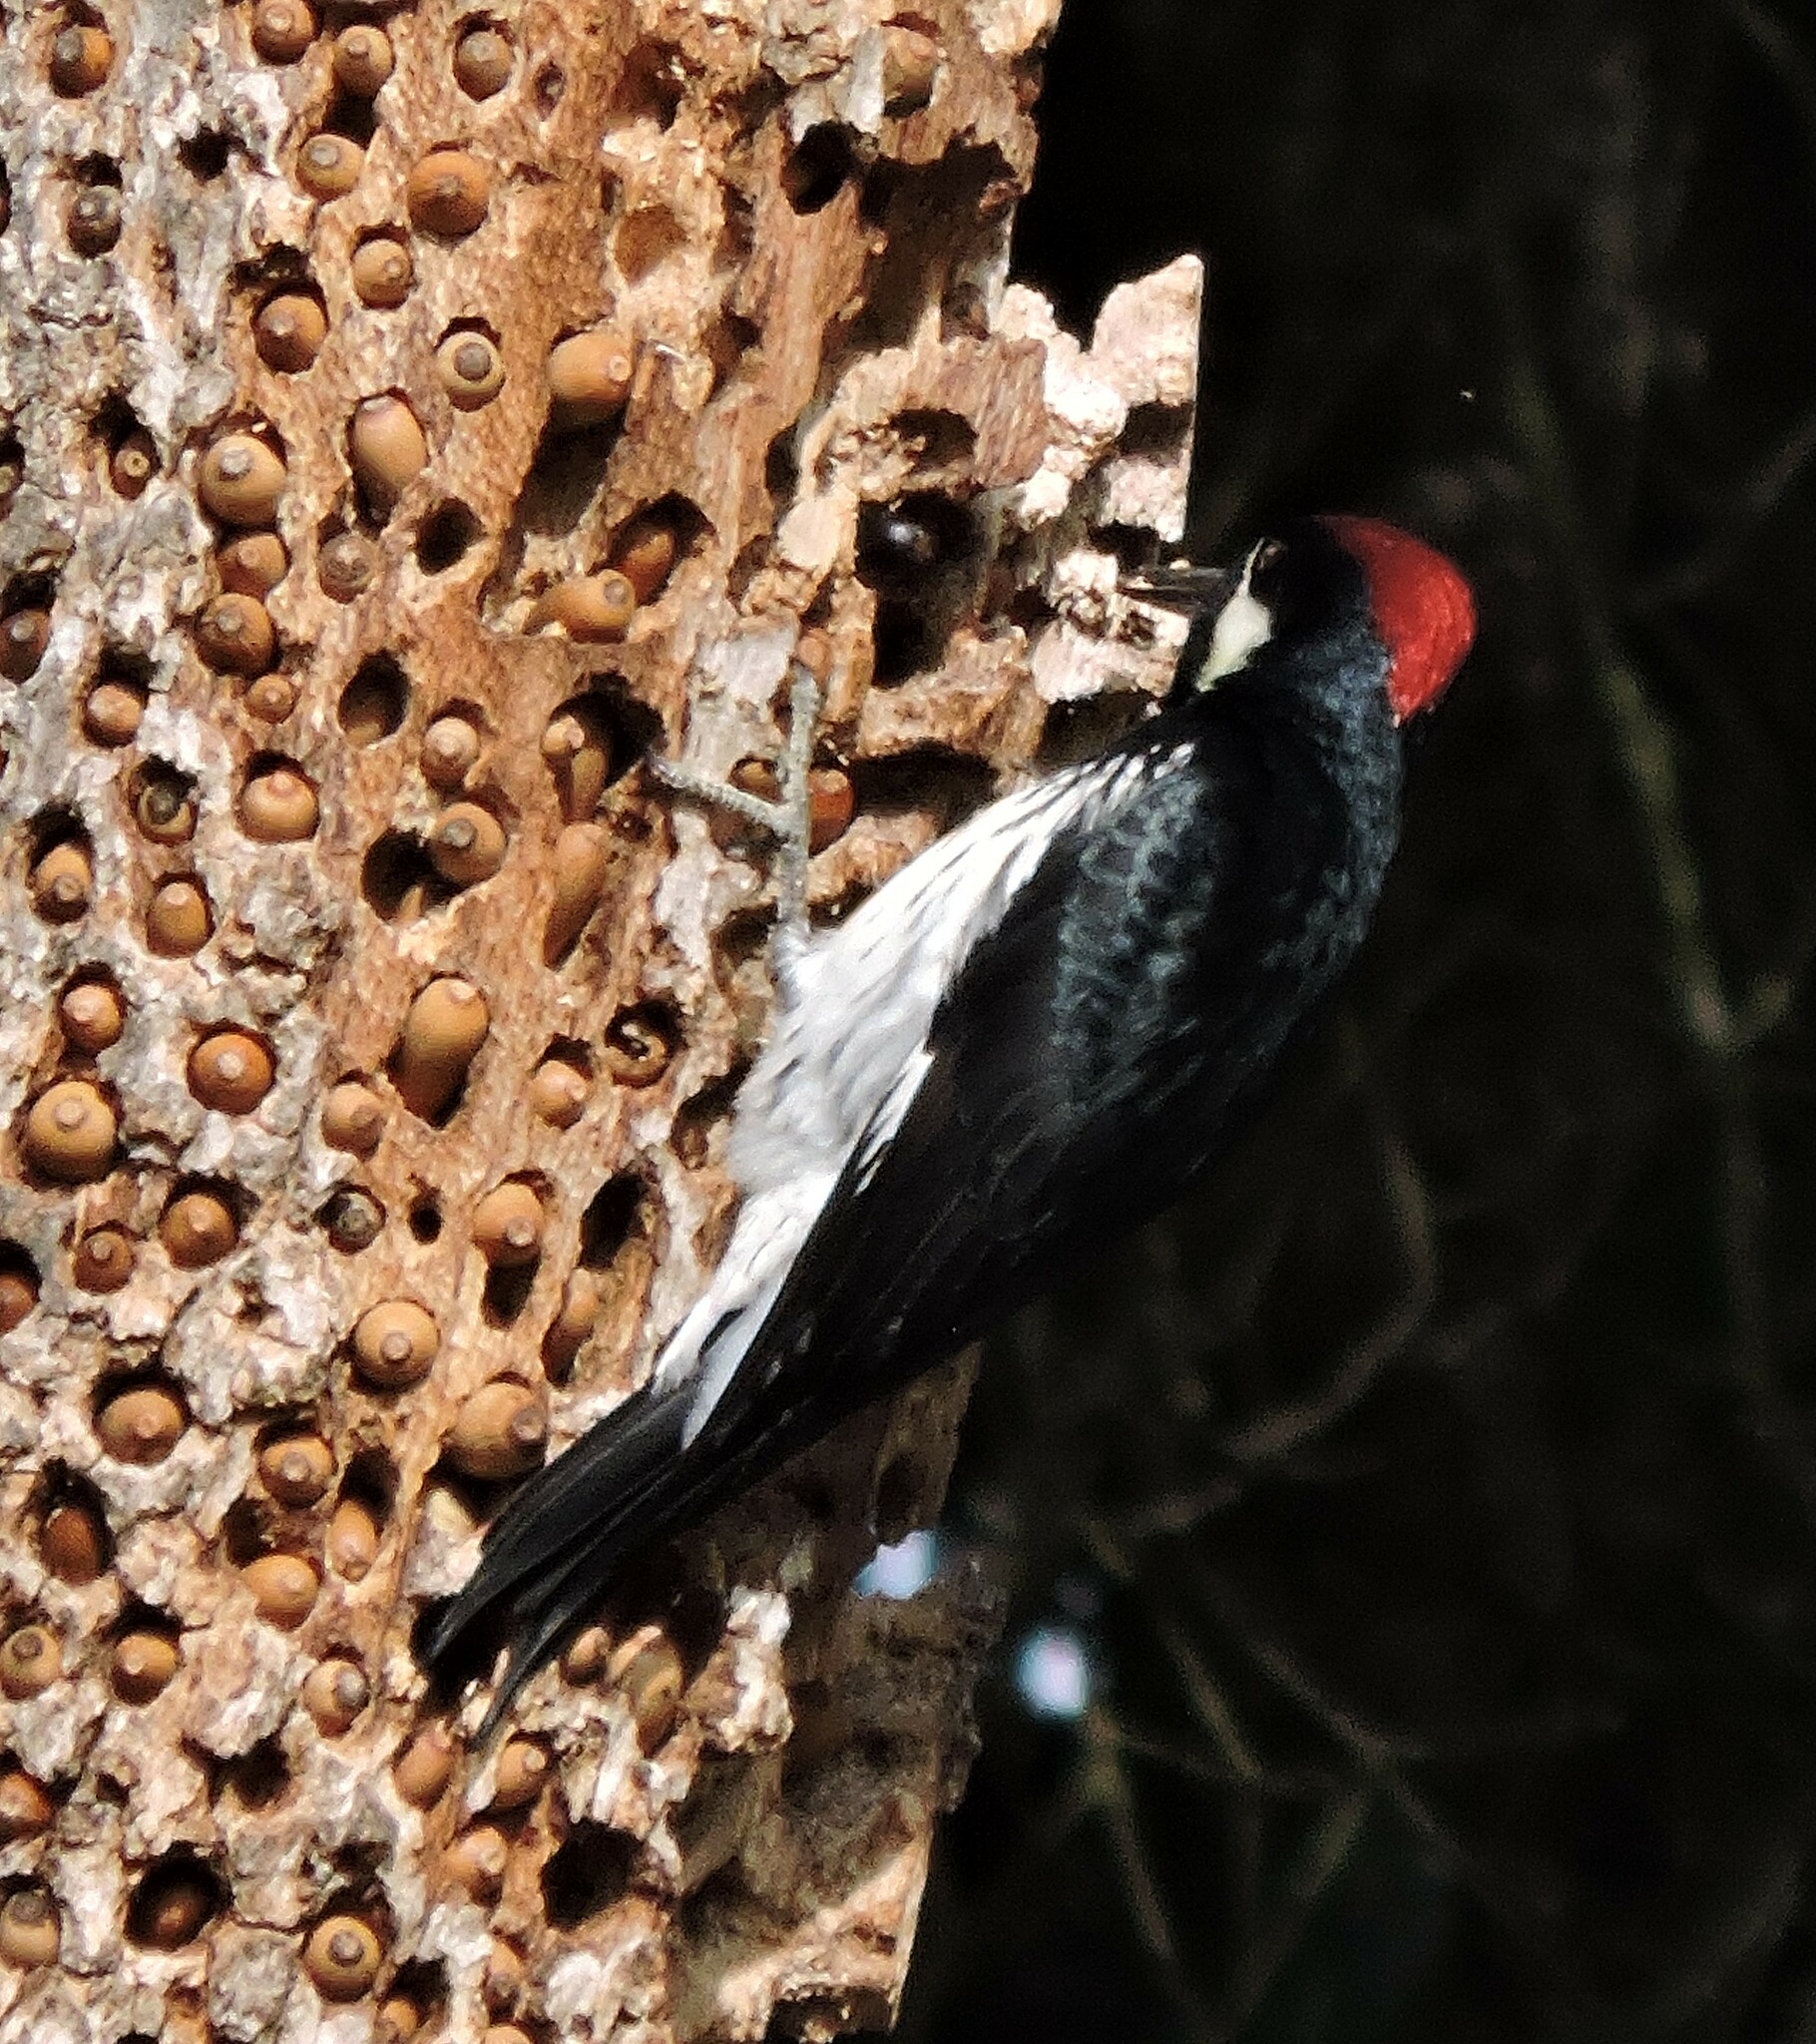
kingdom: Animalia
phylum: Chordata
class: Aves
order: Piciformes
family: Picidae
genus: Melanerpes
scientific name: Melanerpes formicivorus
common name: Acorn woodpecker
